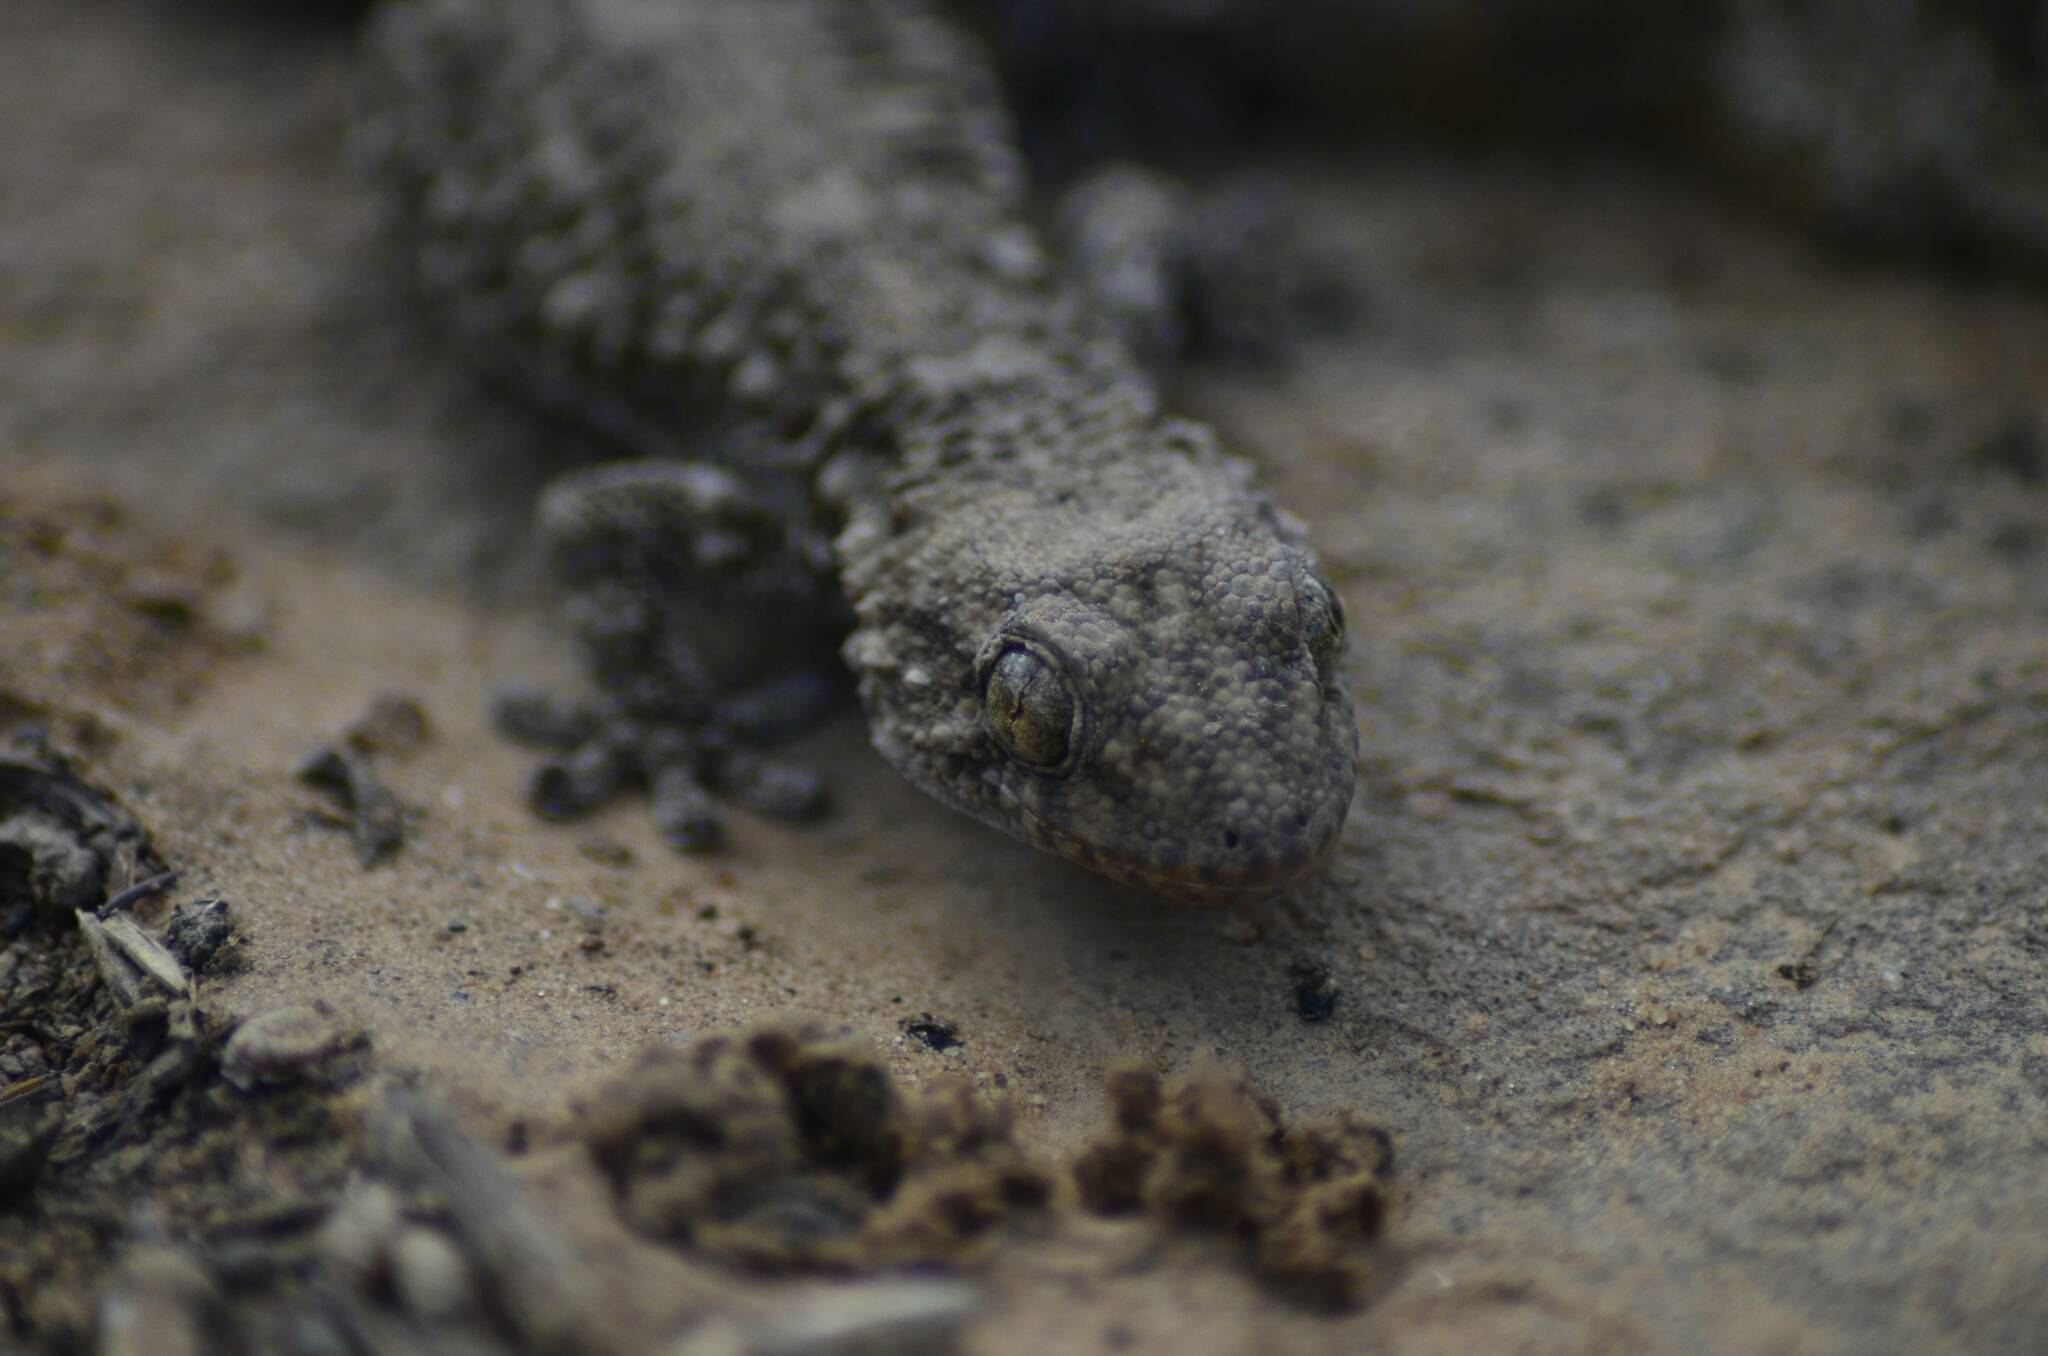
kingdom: Animalia
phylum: Chordata
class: Squamata
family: Phyllodactylidae
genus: Tarentola
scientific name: Tarentola mauritanica
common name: Moorish gecko
